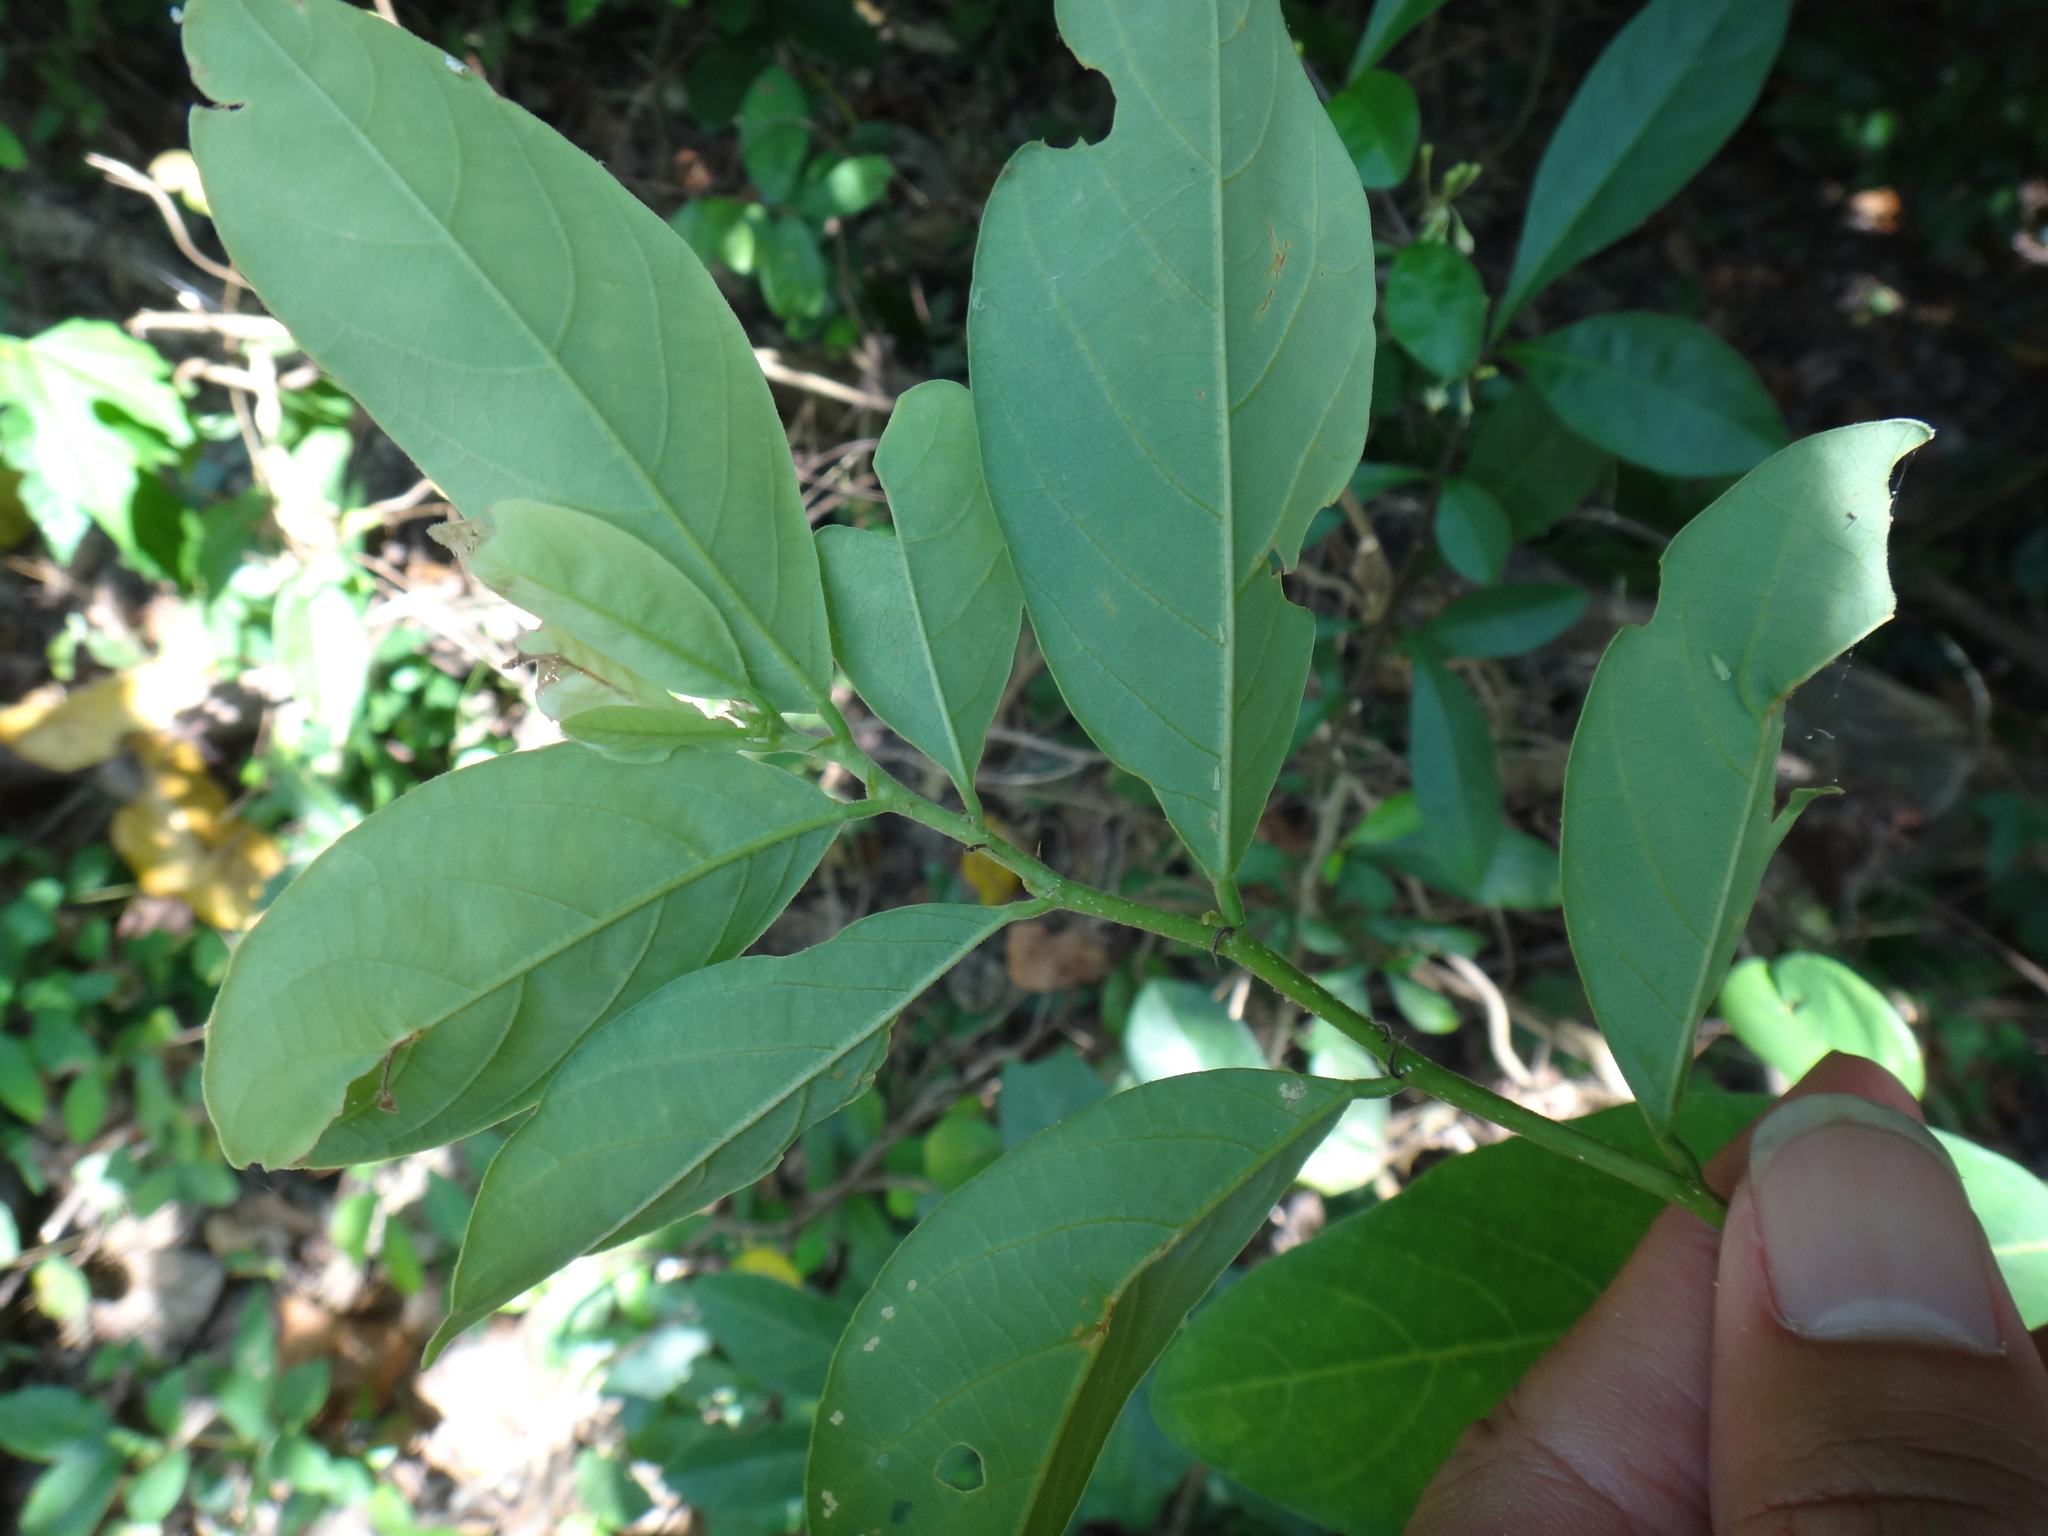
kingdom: Plantae
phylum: Tracheophyta
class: Magnoliopsida
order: Malpighiales
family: Phyllanthaceae
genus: Glochidion
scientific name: Glochidion rubrum
